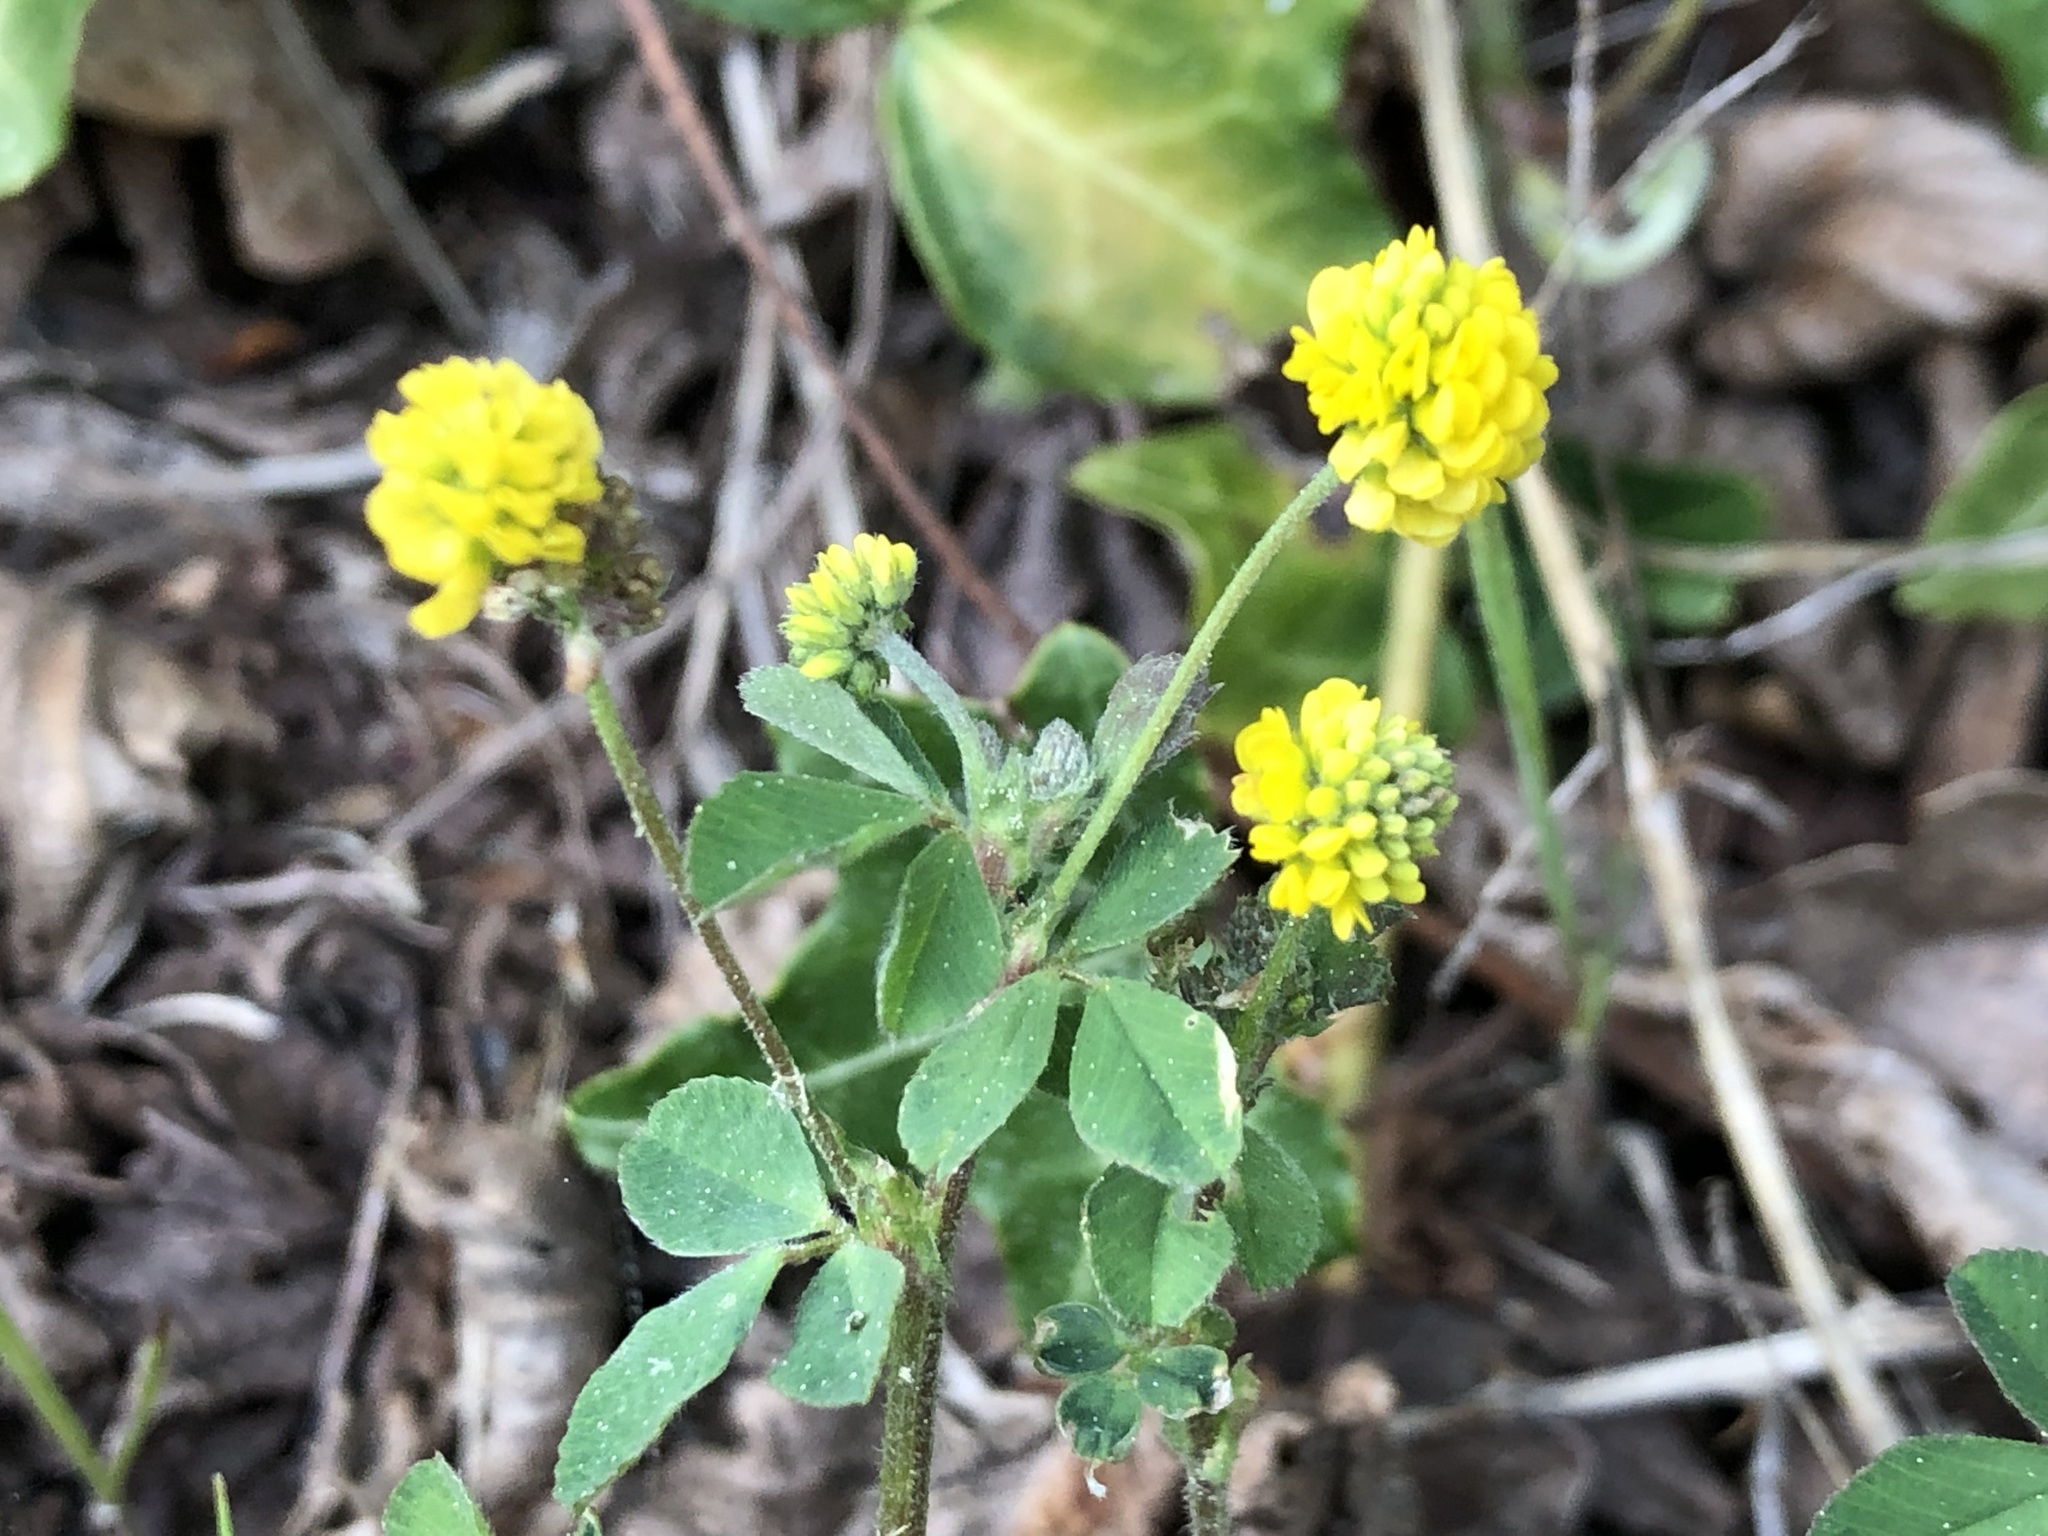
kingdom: Plantae
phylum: Tracheophyta
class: Magnoliopsida
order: Fabales
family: Fabaceae
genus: Medicago
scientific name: Medicago lupulina
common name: Black medick
